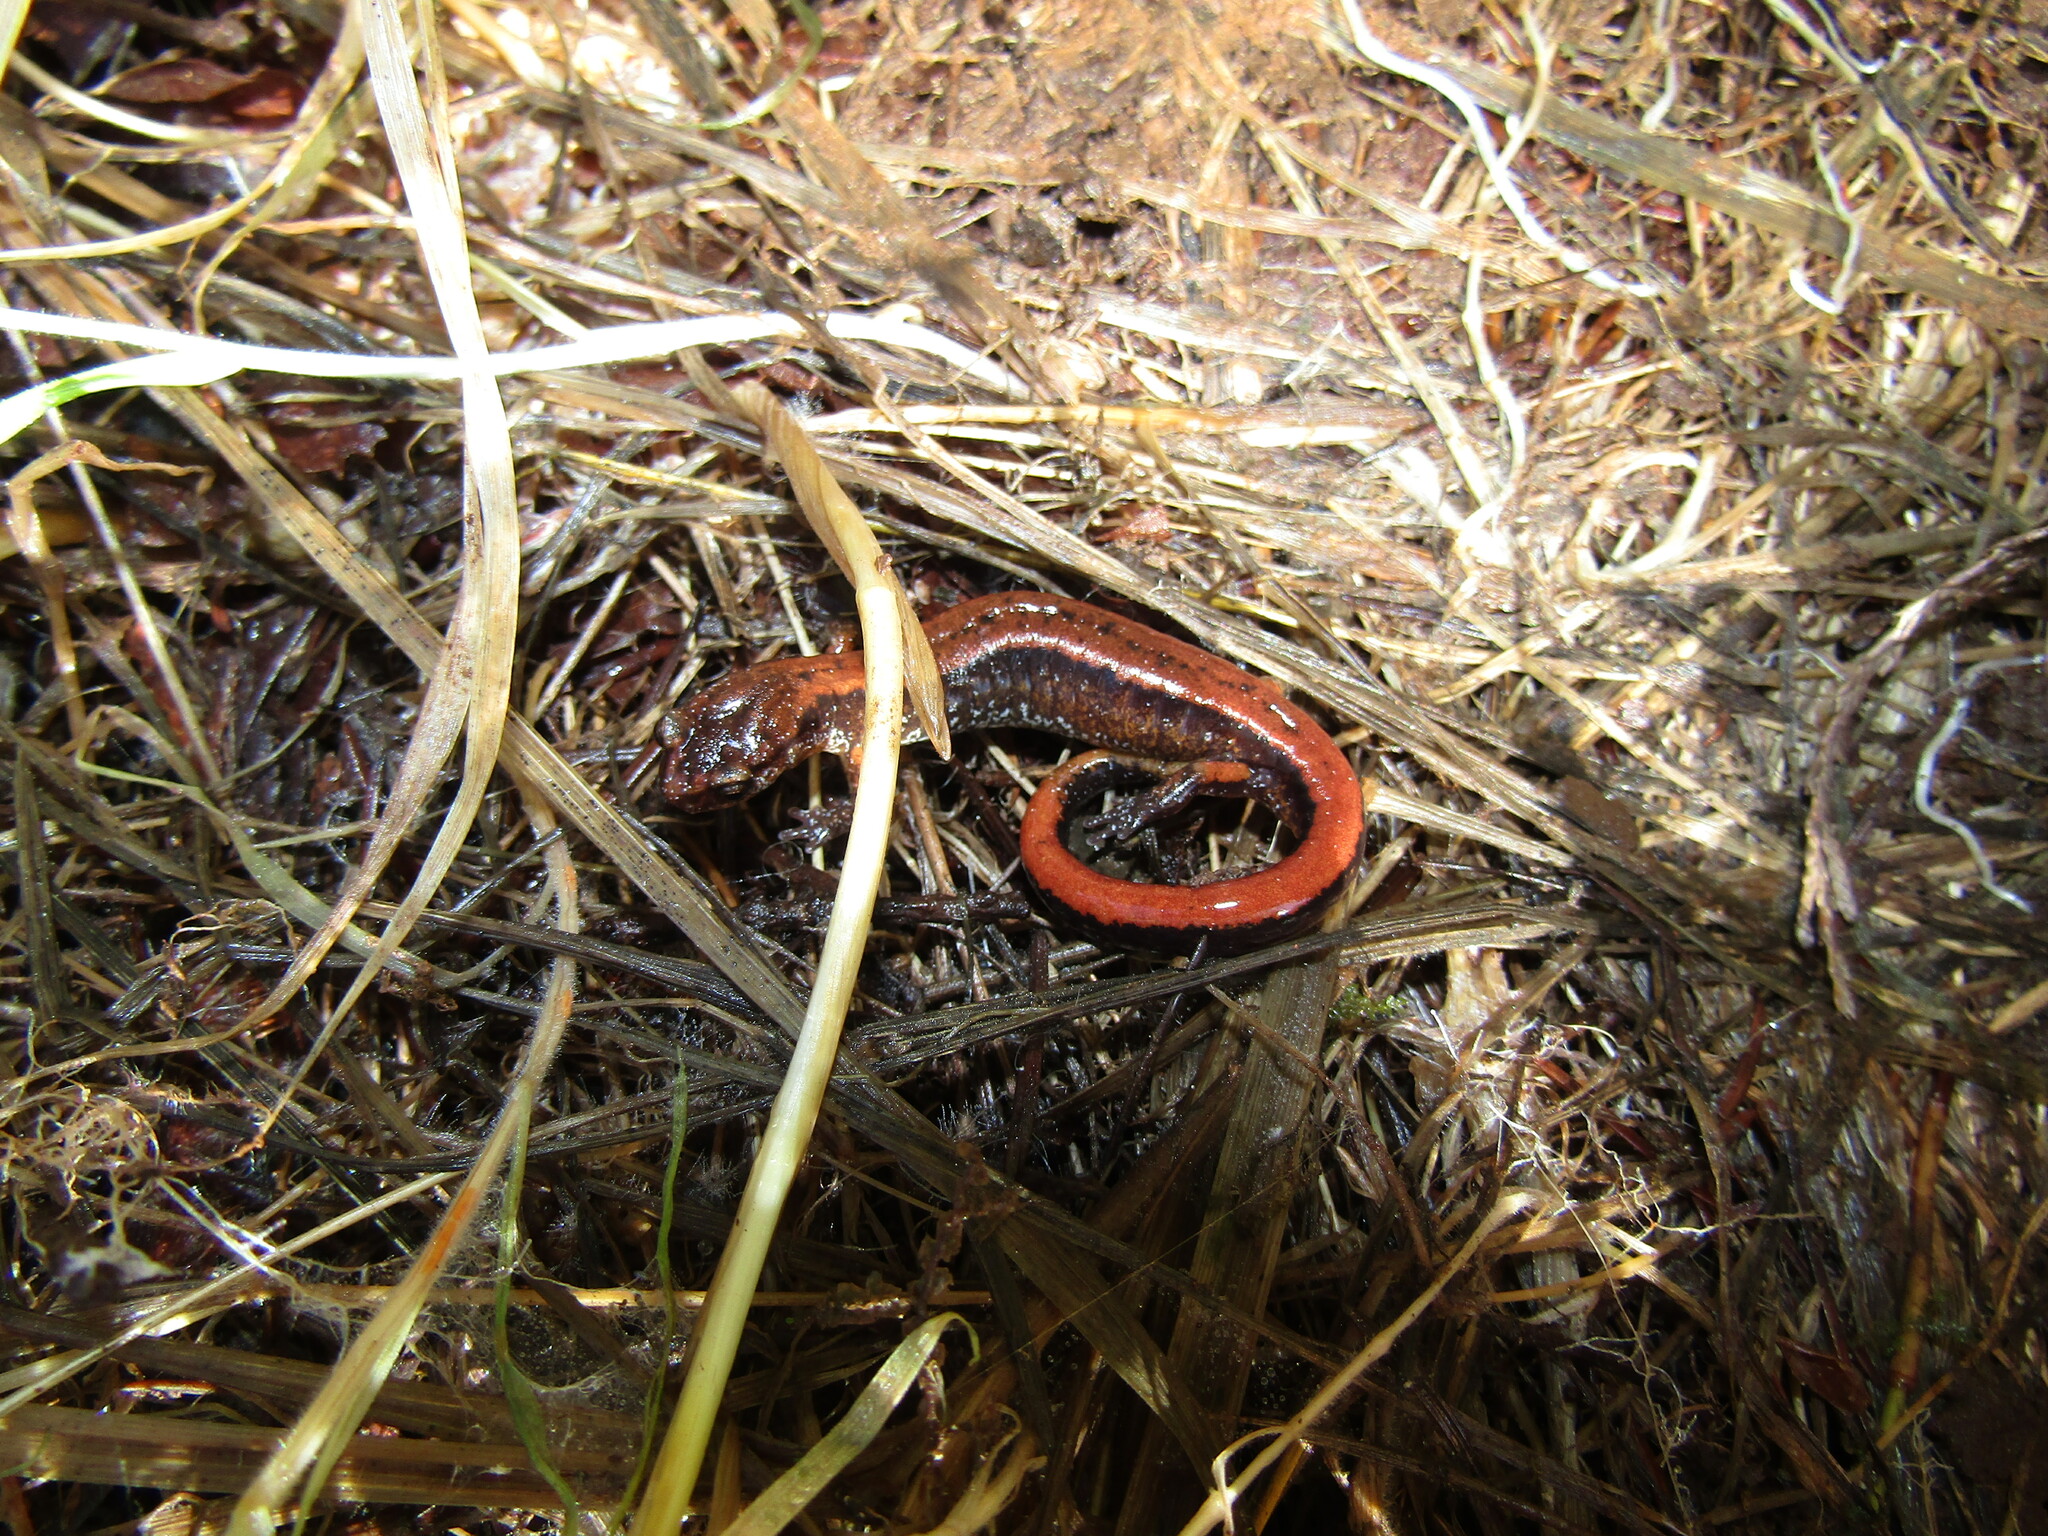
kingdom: Animalia
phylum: Chordata
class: Amphibia
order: Caudata
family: Plethodontidae
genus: Plethodon
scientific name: Plethodon vehiculum
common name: Western red-backed salamander
